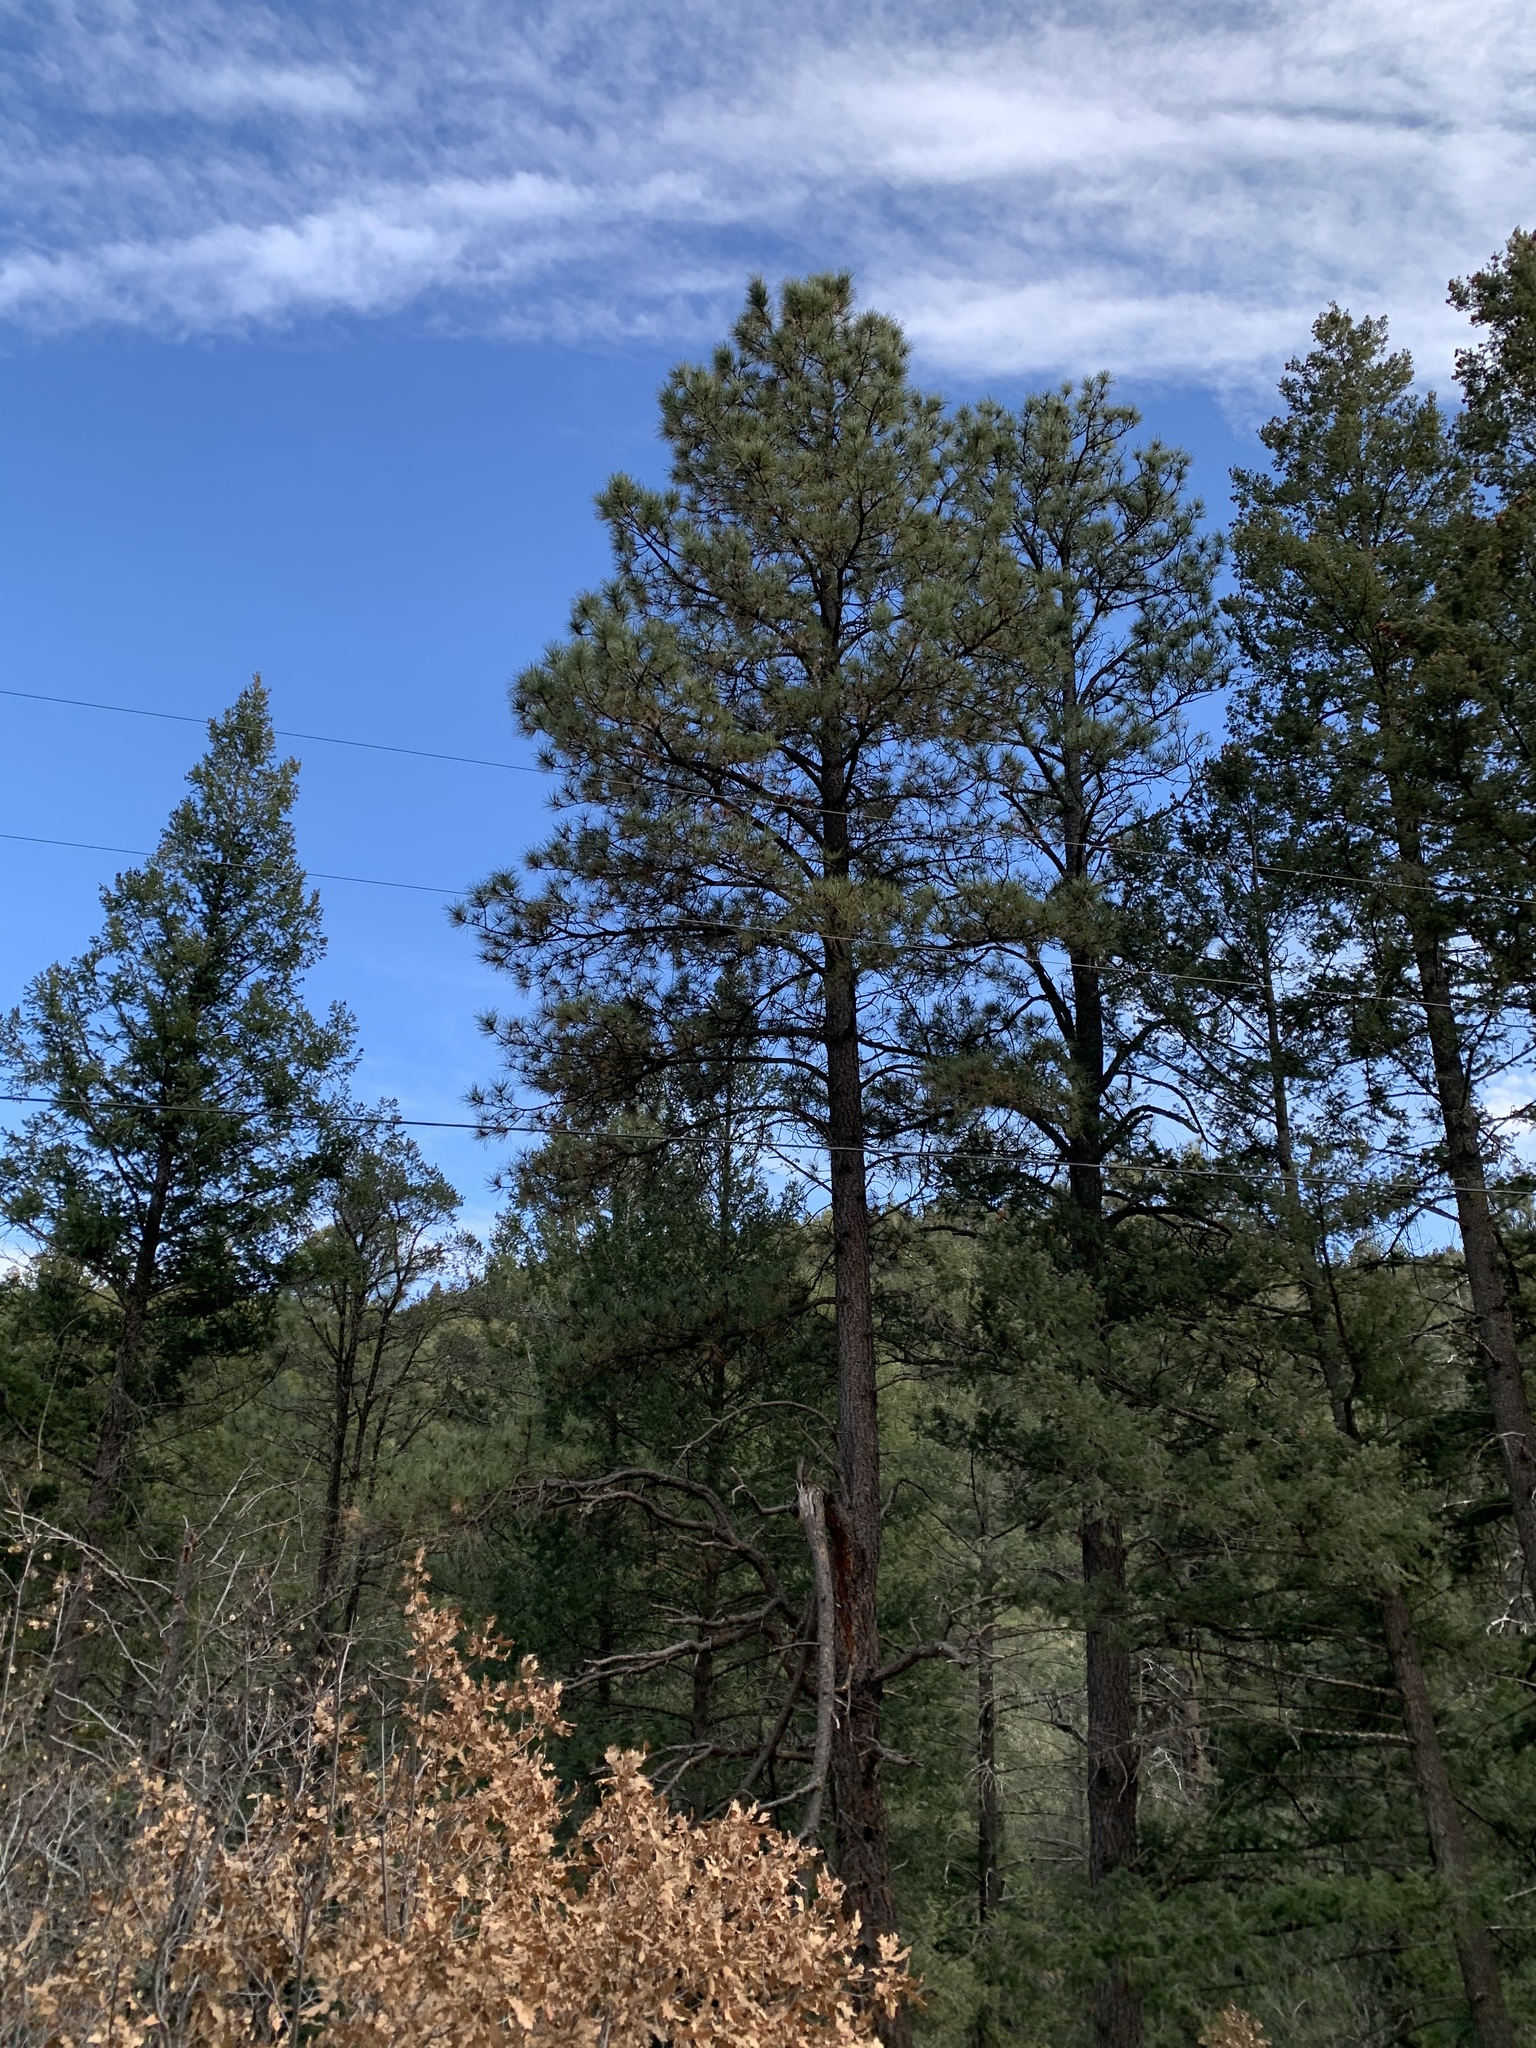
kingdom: Plantae
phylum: Tracheophyta
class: Pinopsida
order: Pinales
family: Pinaceae
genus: Pinus
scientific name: Pinus ponderosa
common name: Western yellow-pine
